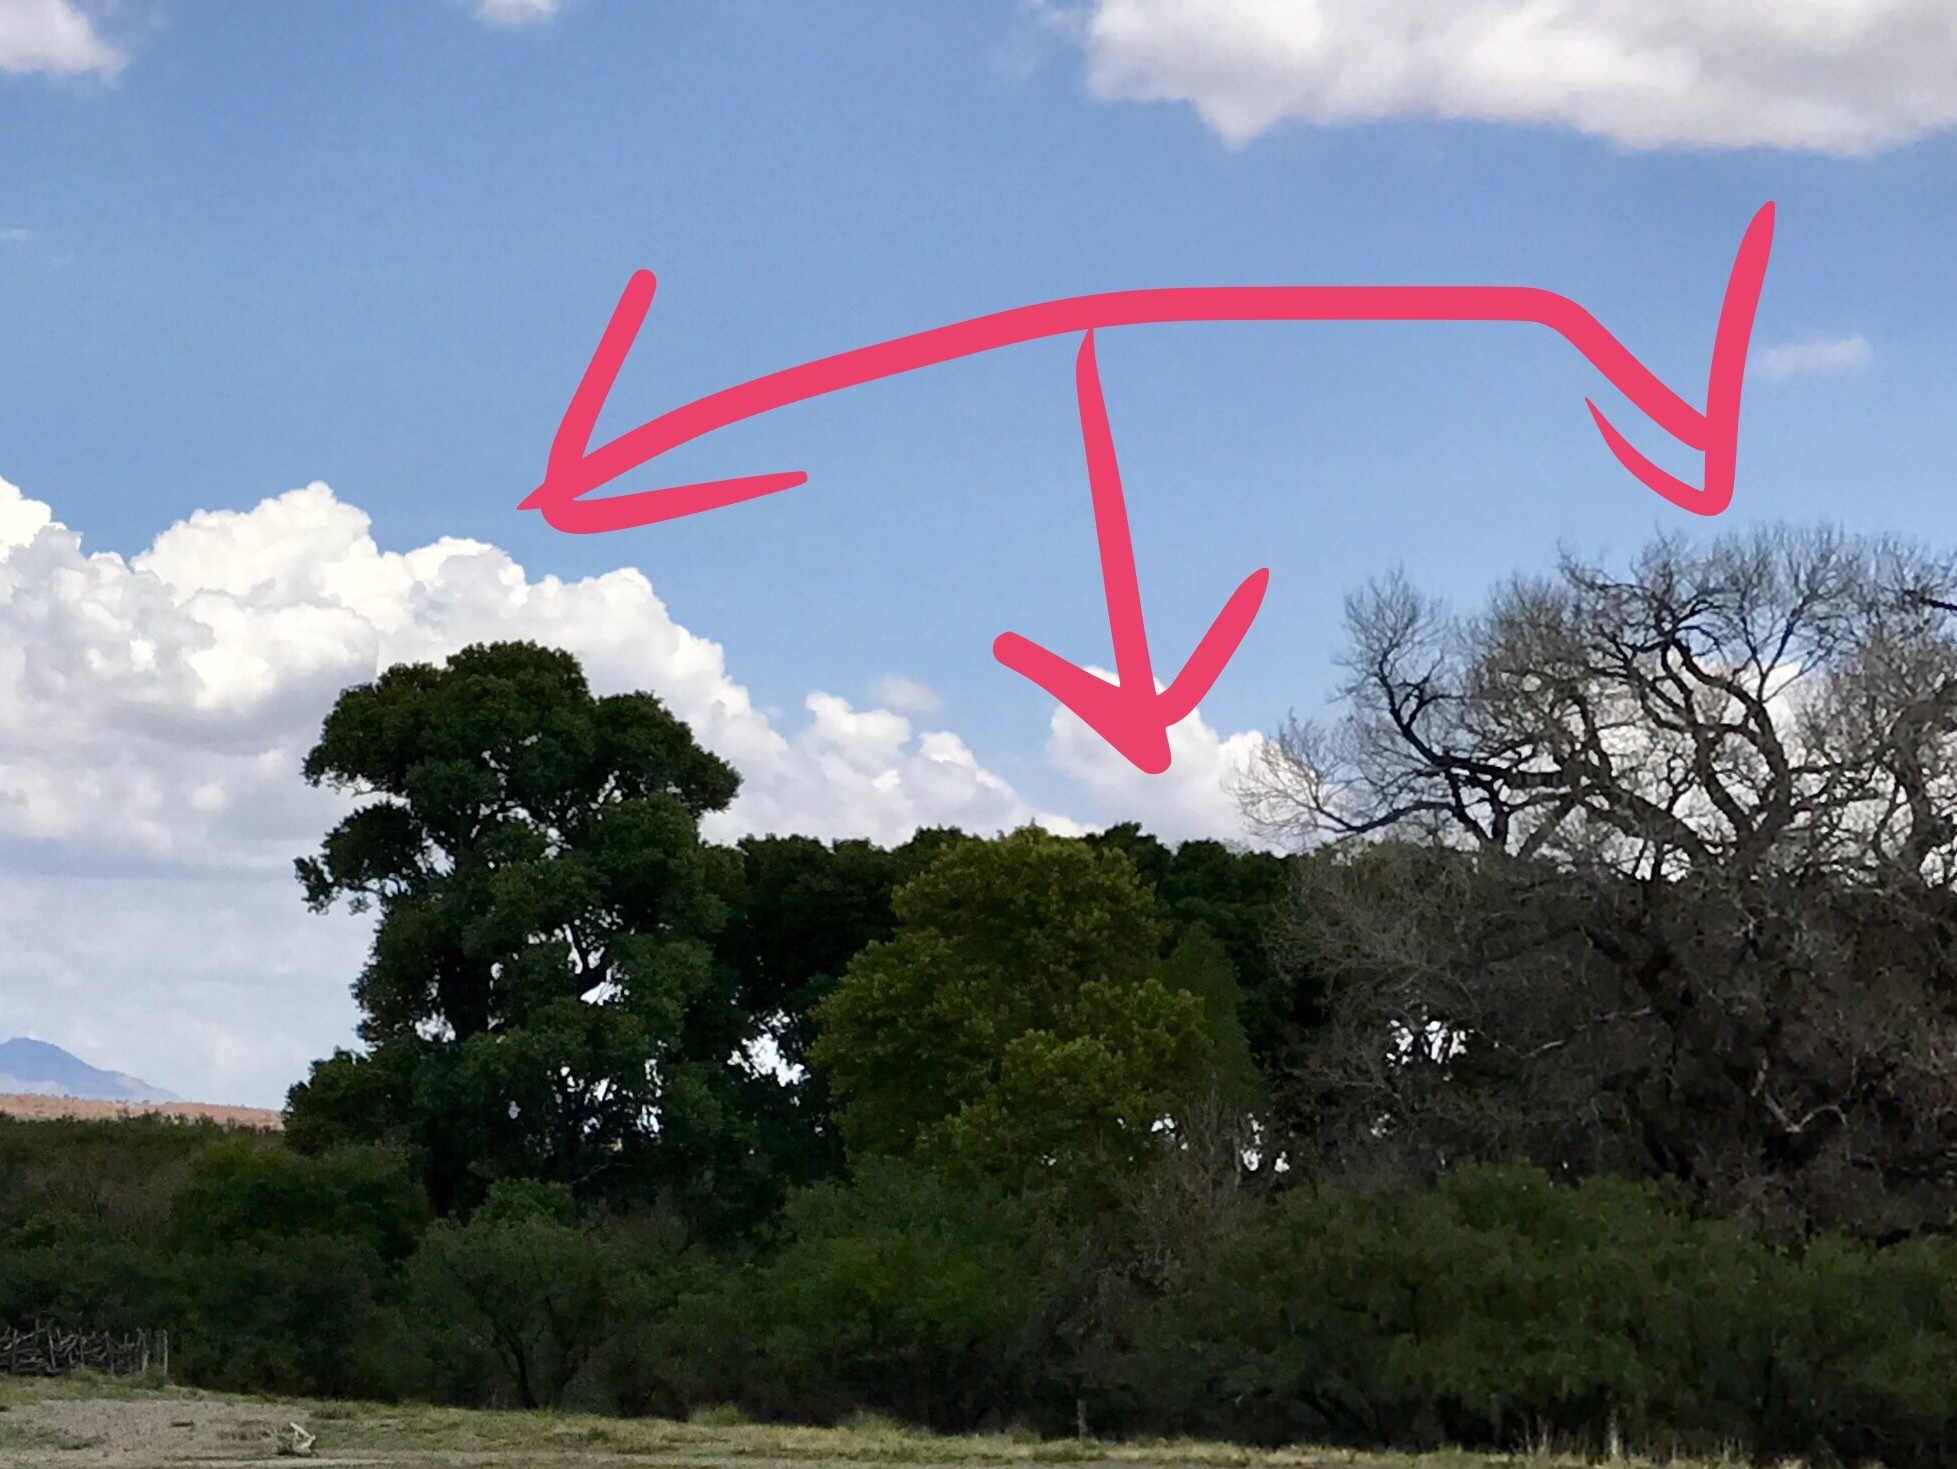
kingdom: Plantae
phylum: Tracheophyta
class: Magnoliopsida
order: Malpighiales
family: Salicaceae
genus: Populus
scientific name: Populus fremontii
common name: Fremont's cottonwood
